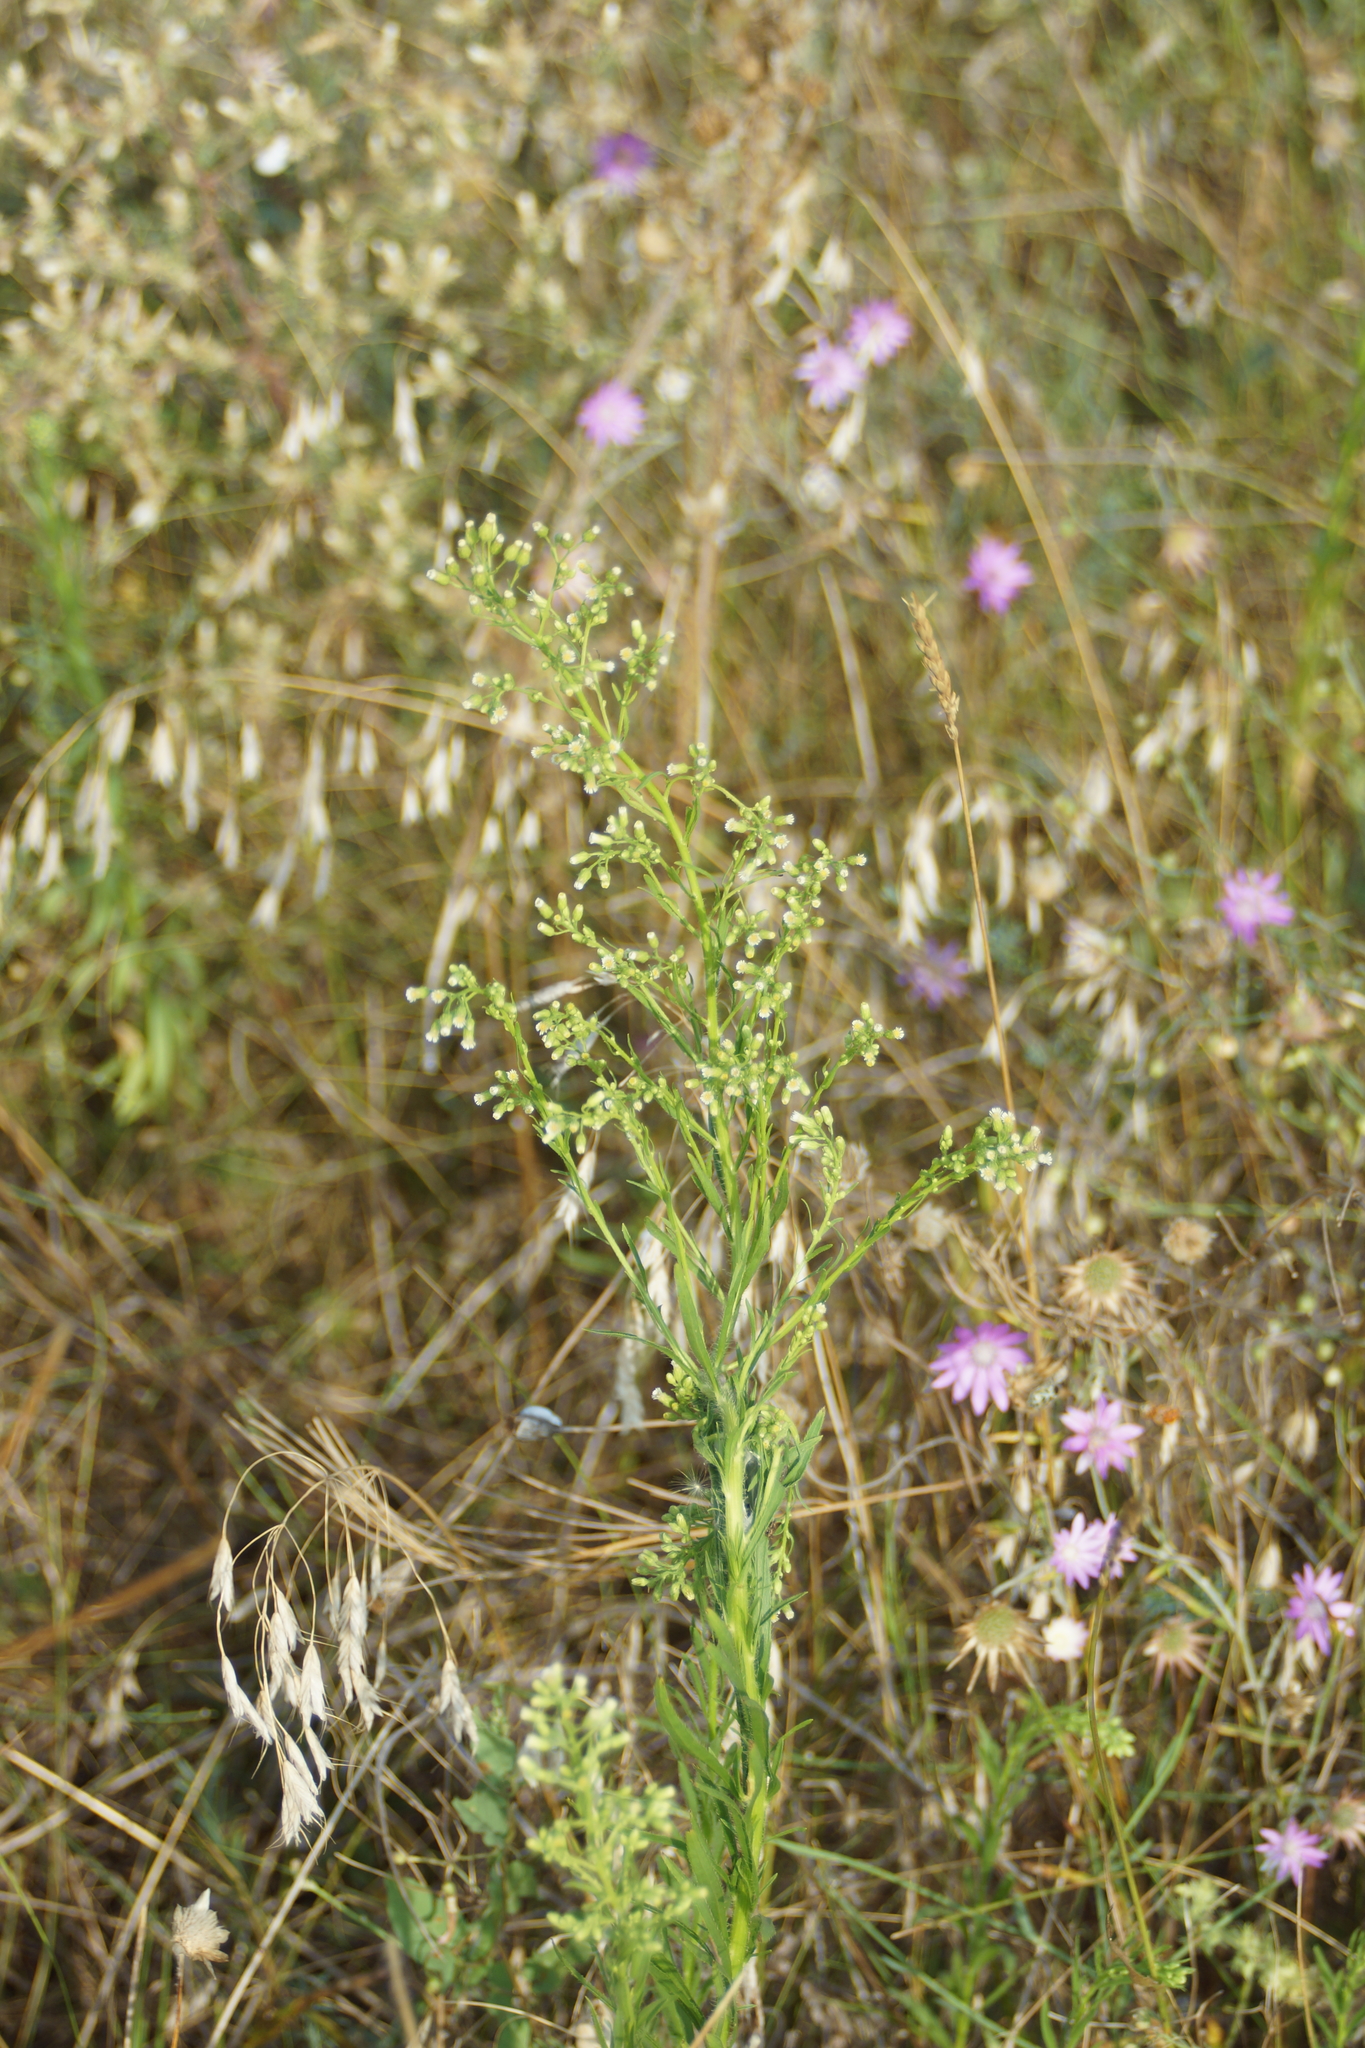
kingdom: Plantae
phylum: Tracheophyta
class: Magnoliopsida
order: Asterales
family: Asteraceae
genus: Erigeron
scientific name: Erigeron canadensis
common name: Canadian fleabane
